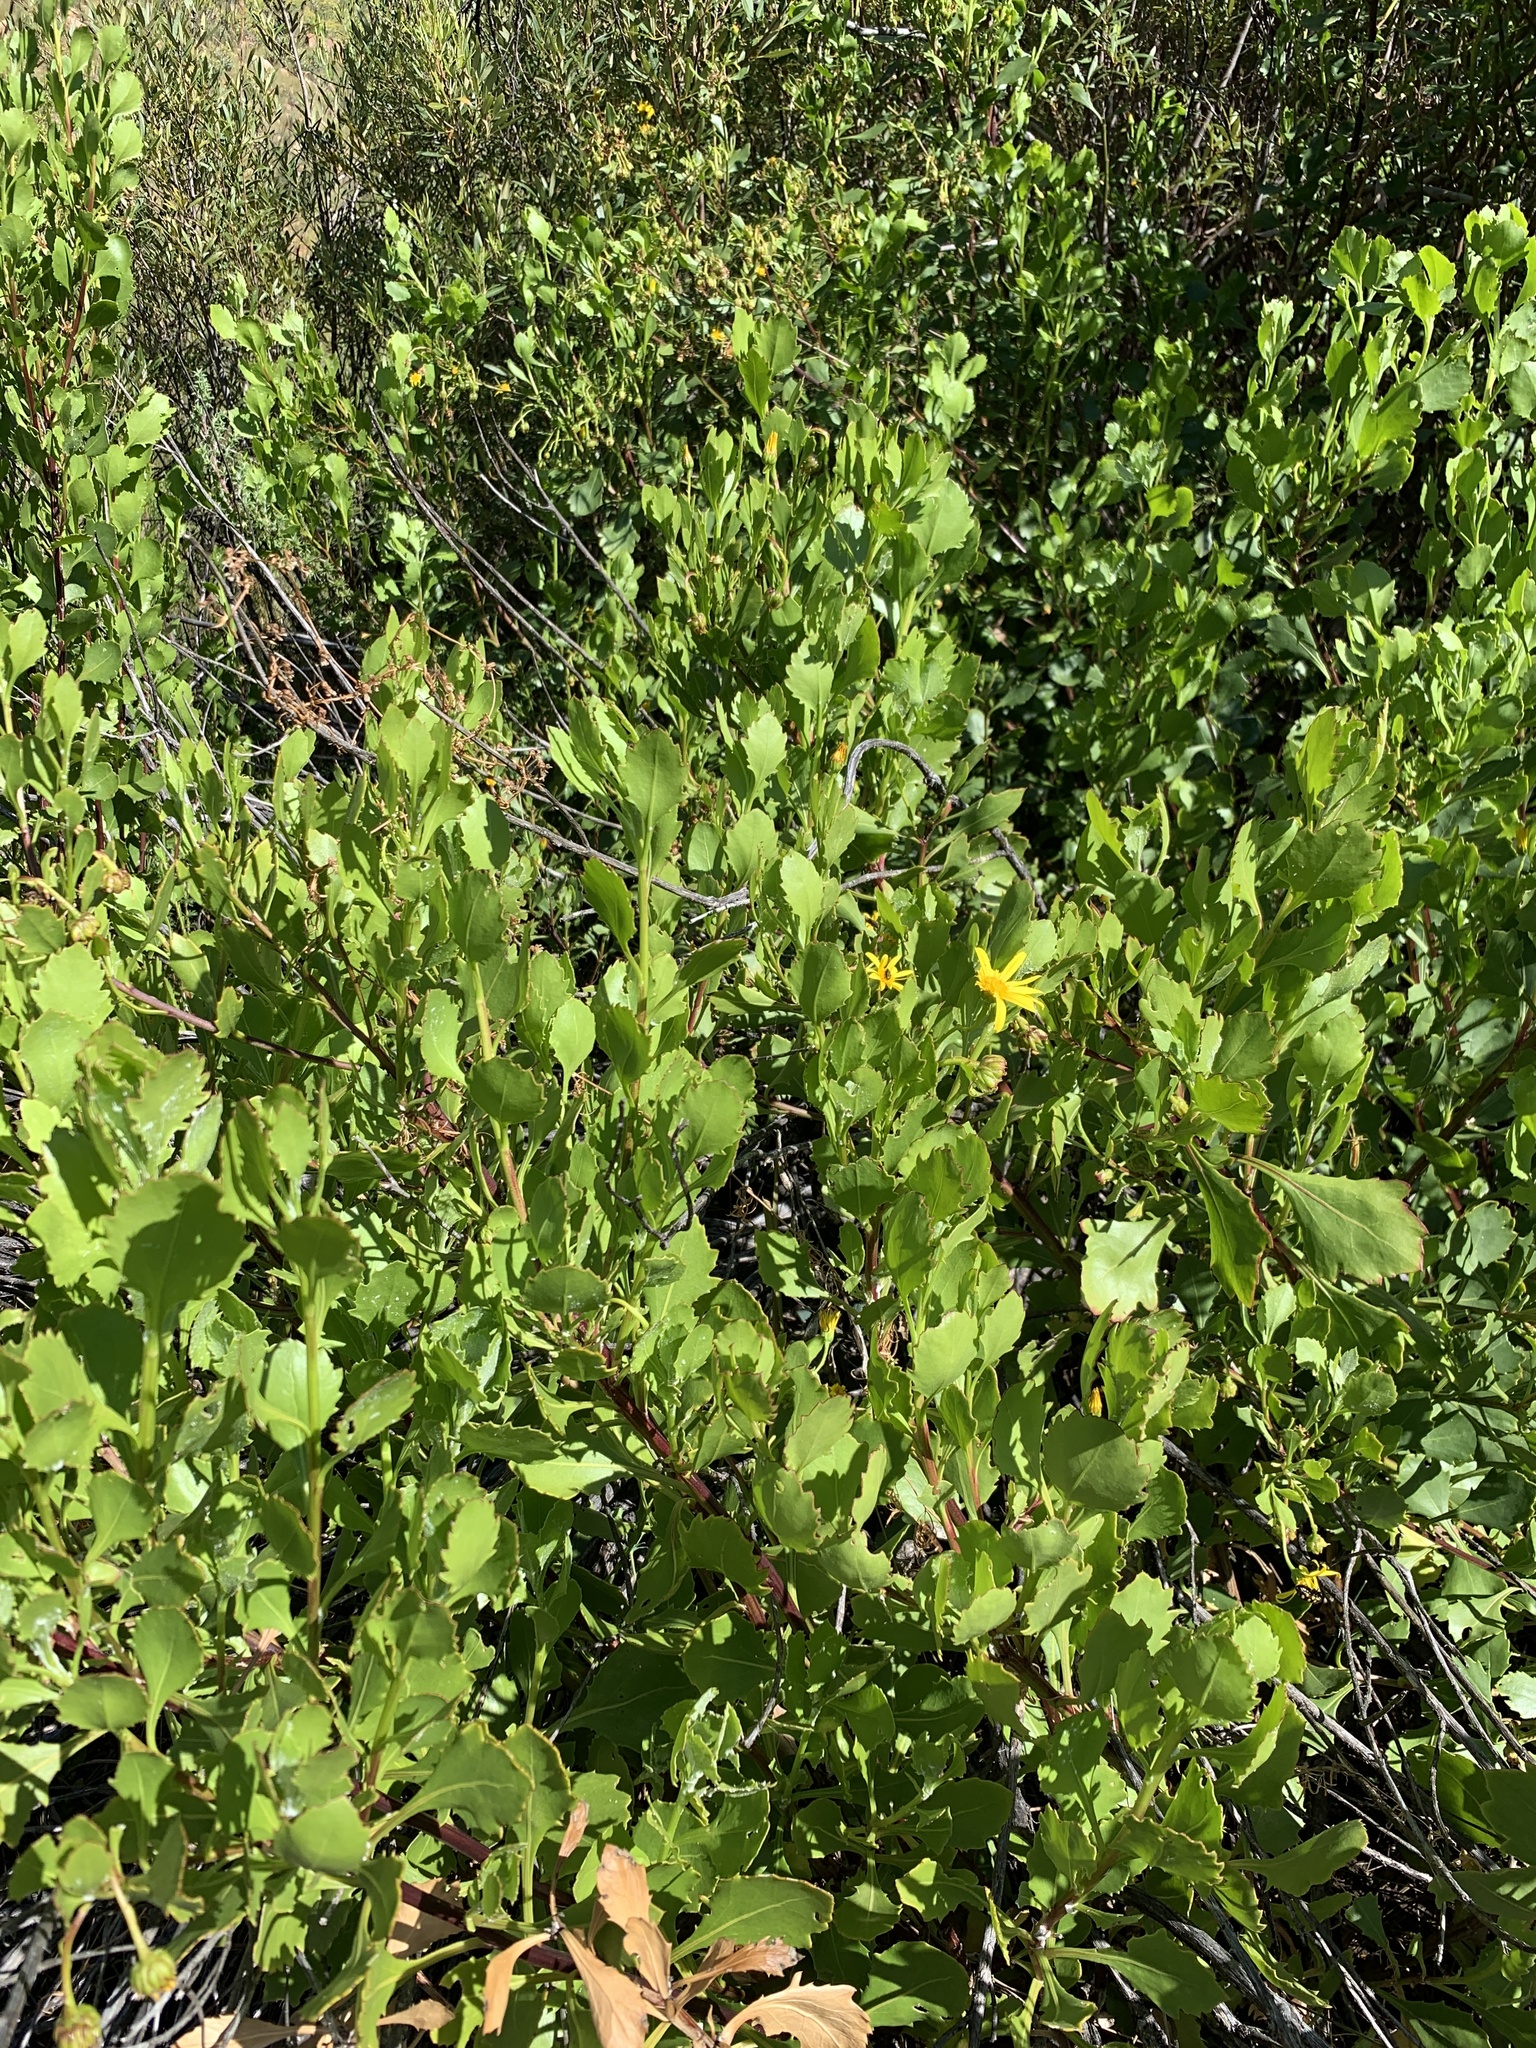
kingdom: Plantae
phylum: Tracheophyta
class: Magnoliopsida
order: Asterales
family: Asteraceae
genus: Osteospermum
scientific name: Osteospermum moniliferum
